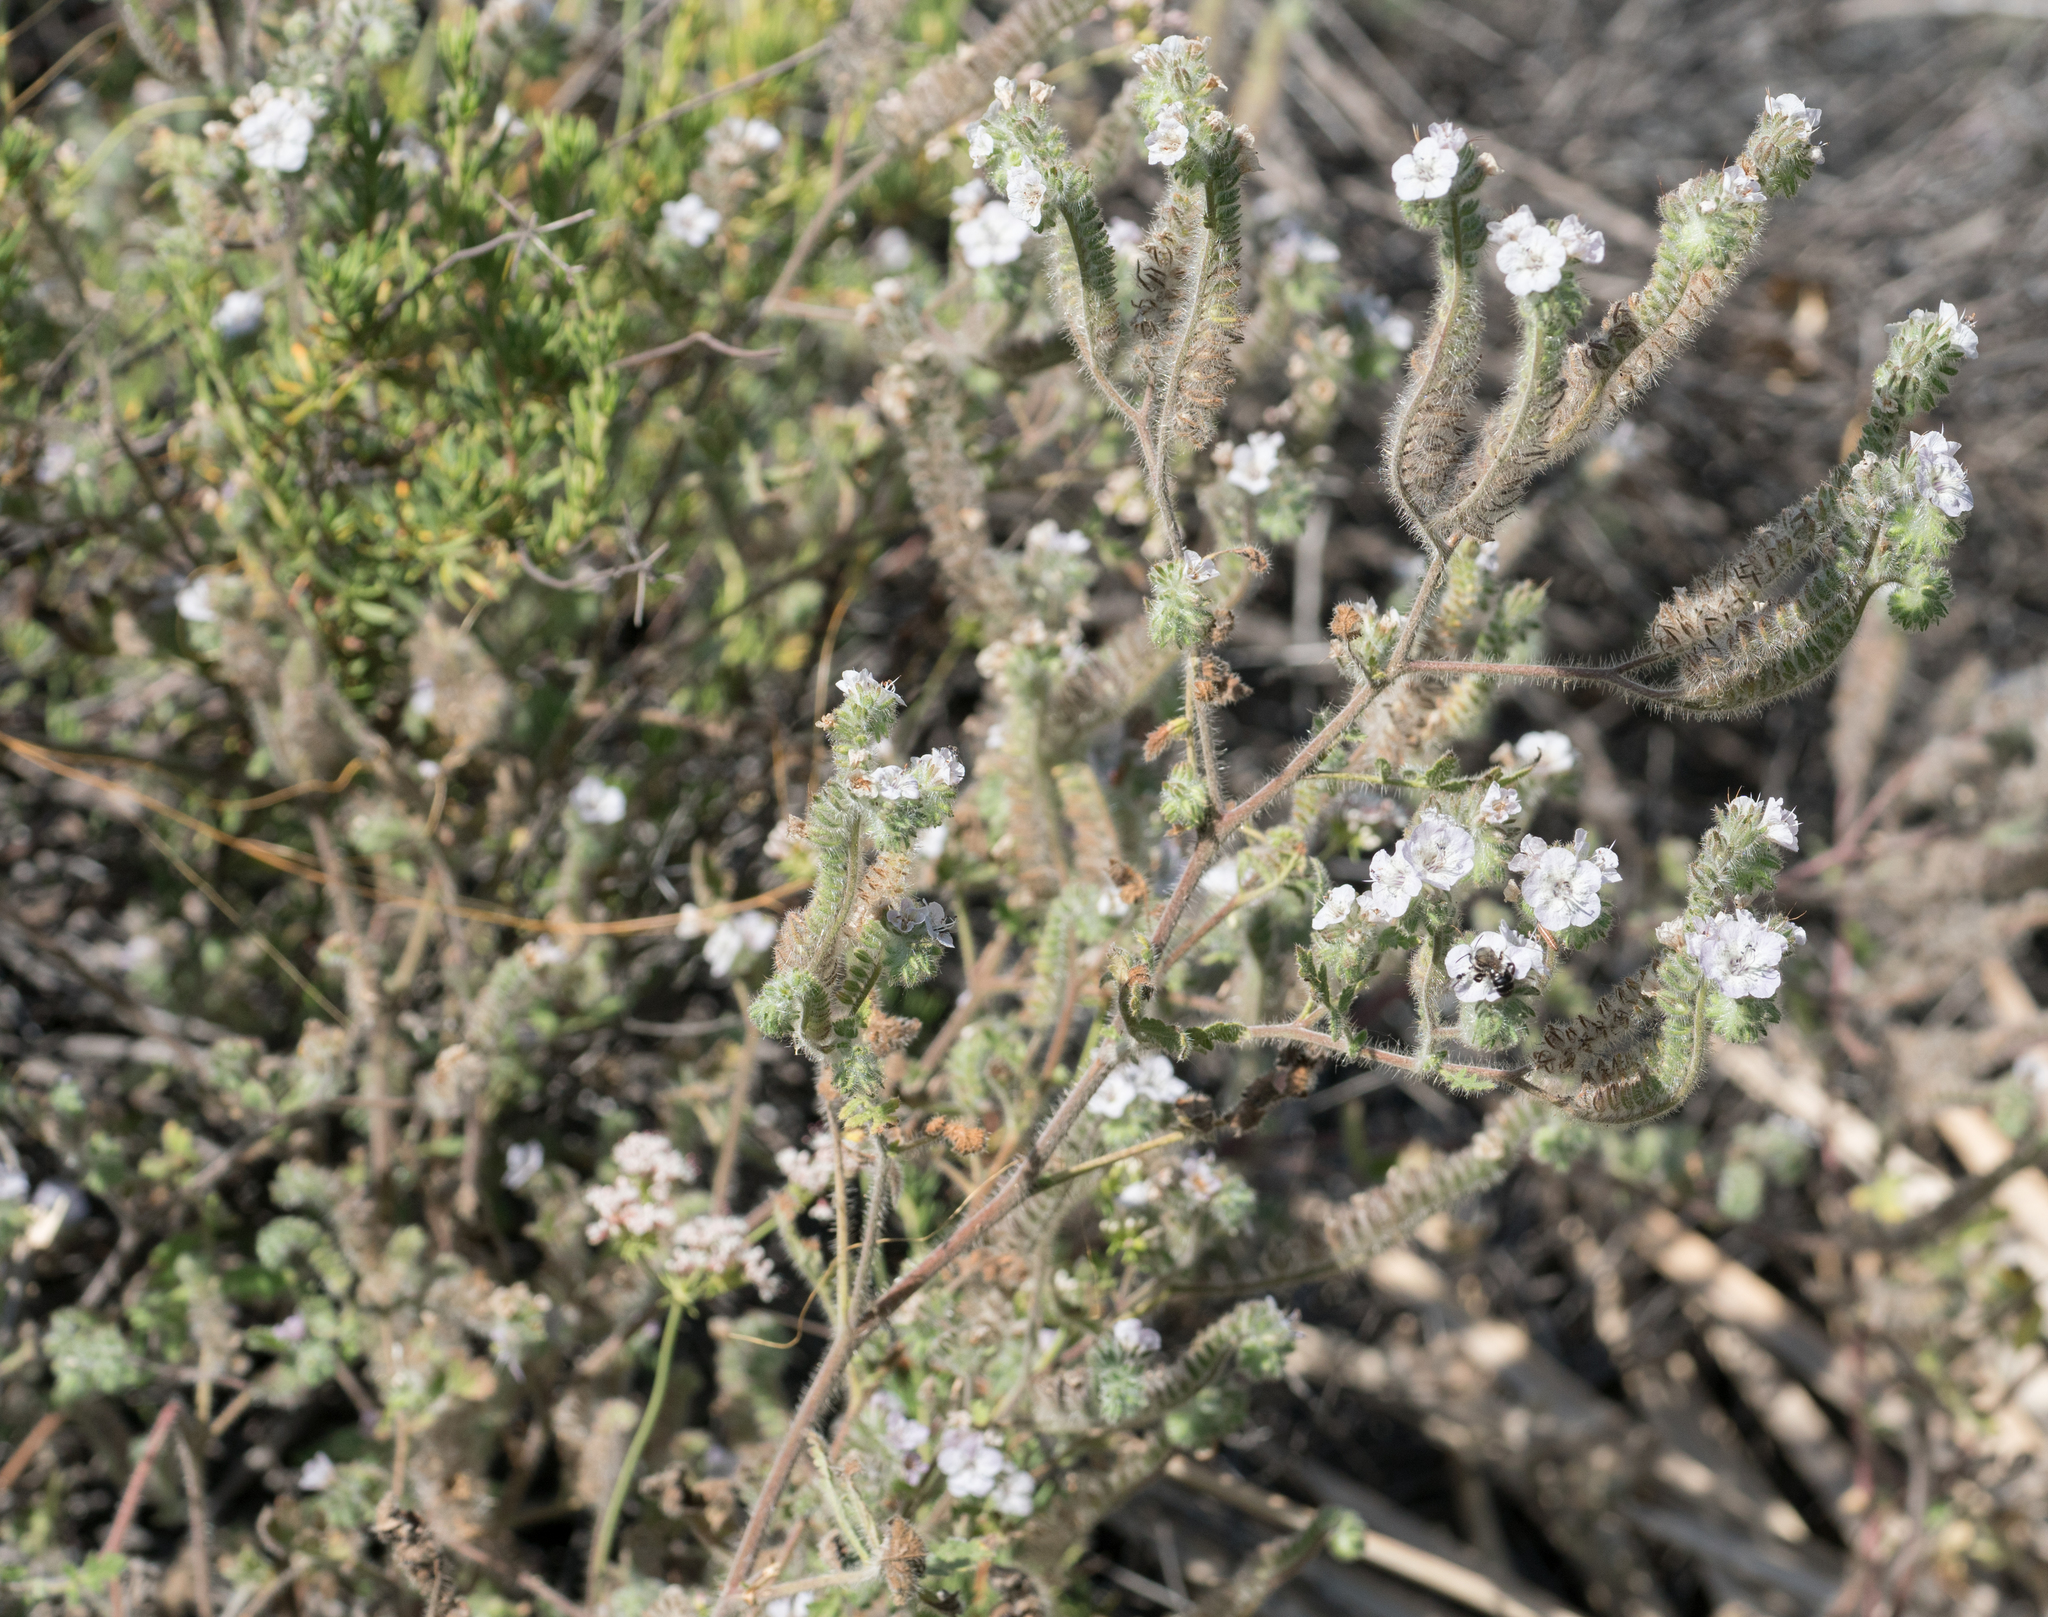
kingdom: Plantae
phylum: Tracheophyta
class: Magnoliopsida
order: Boraginales
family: Hydrophyllaceae
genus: Phacelia
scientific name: Phacelia cicutaria
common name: Caterpillar phacelia
